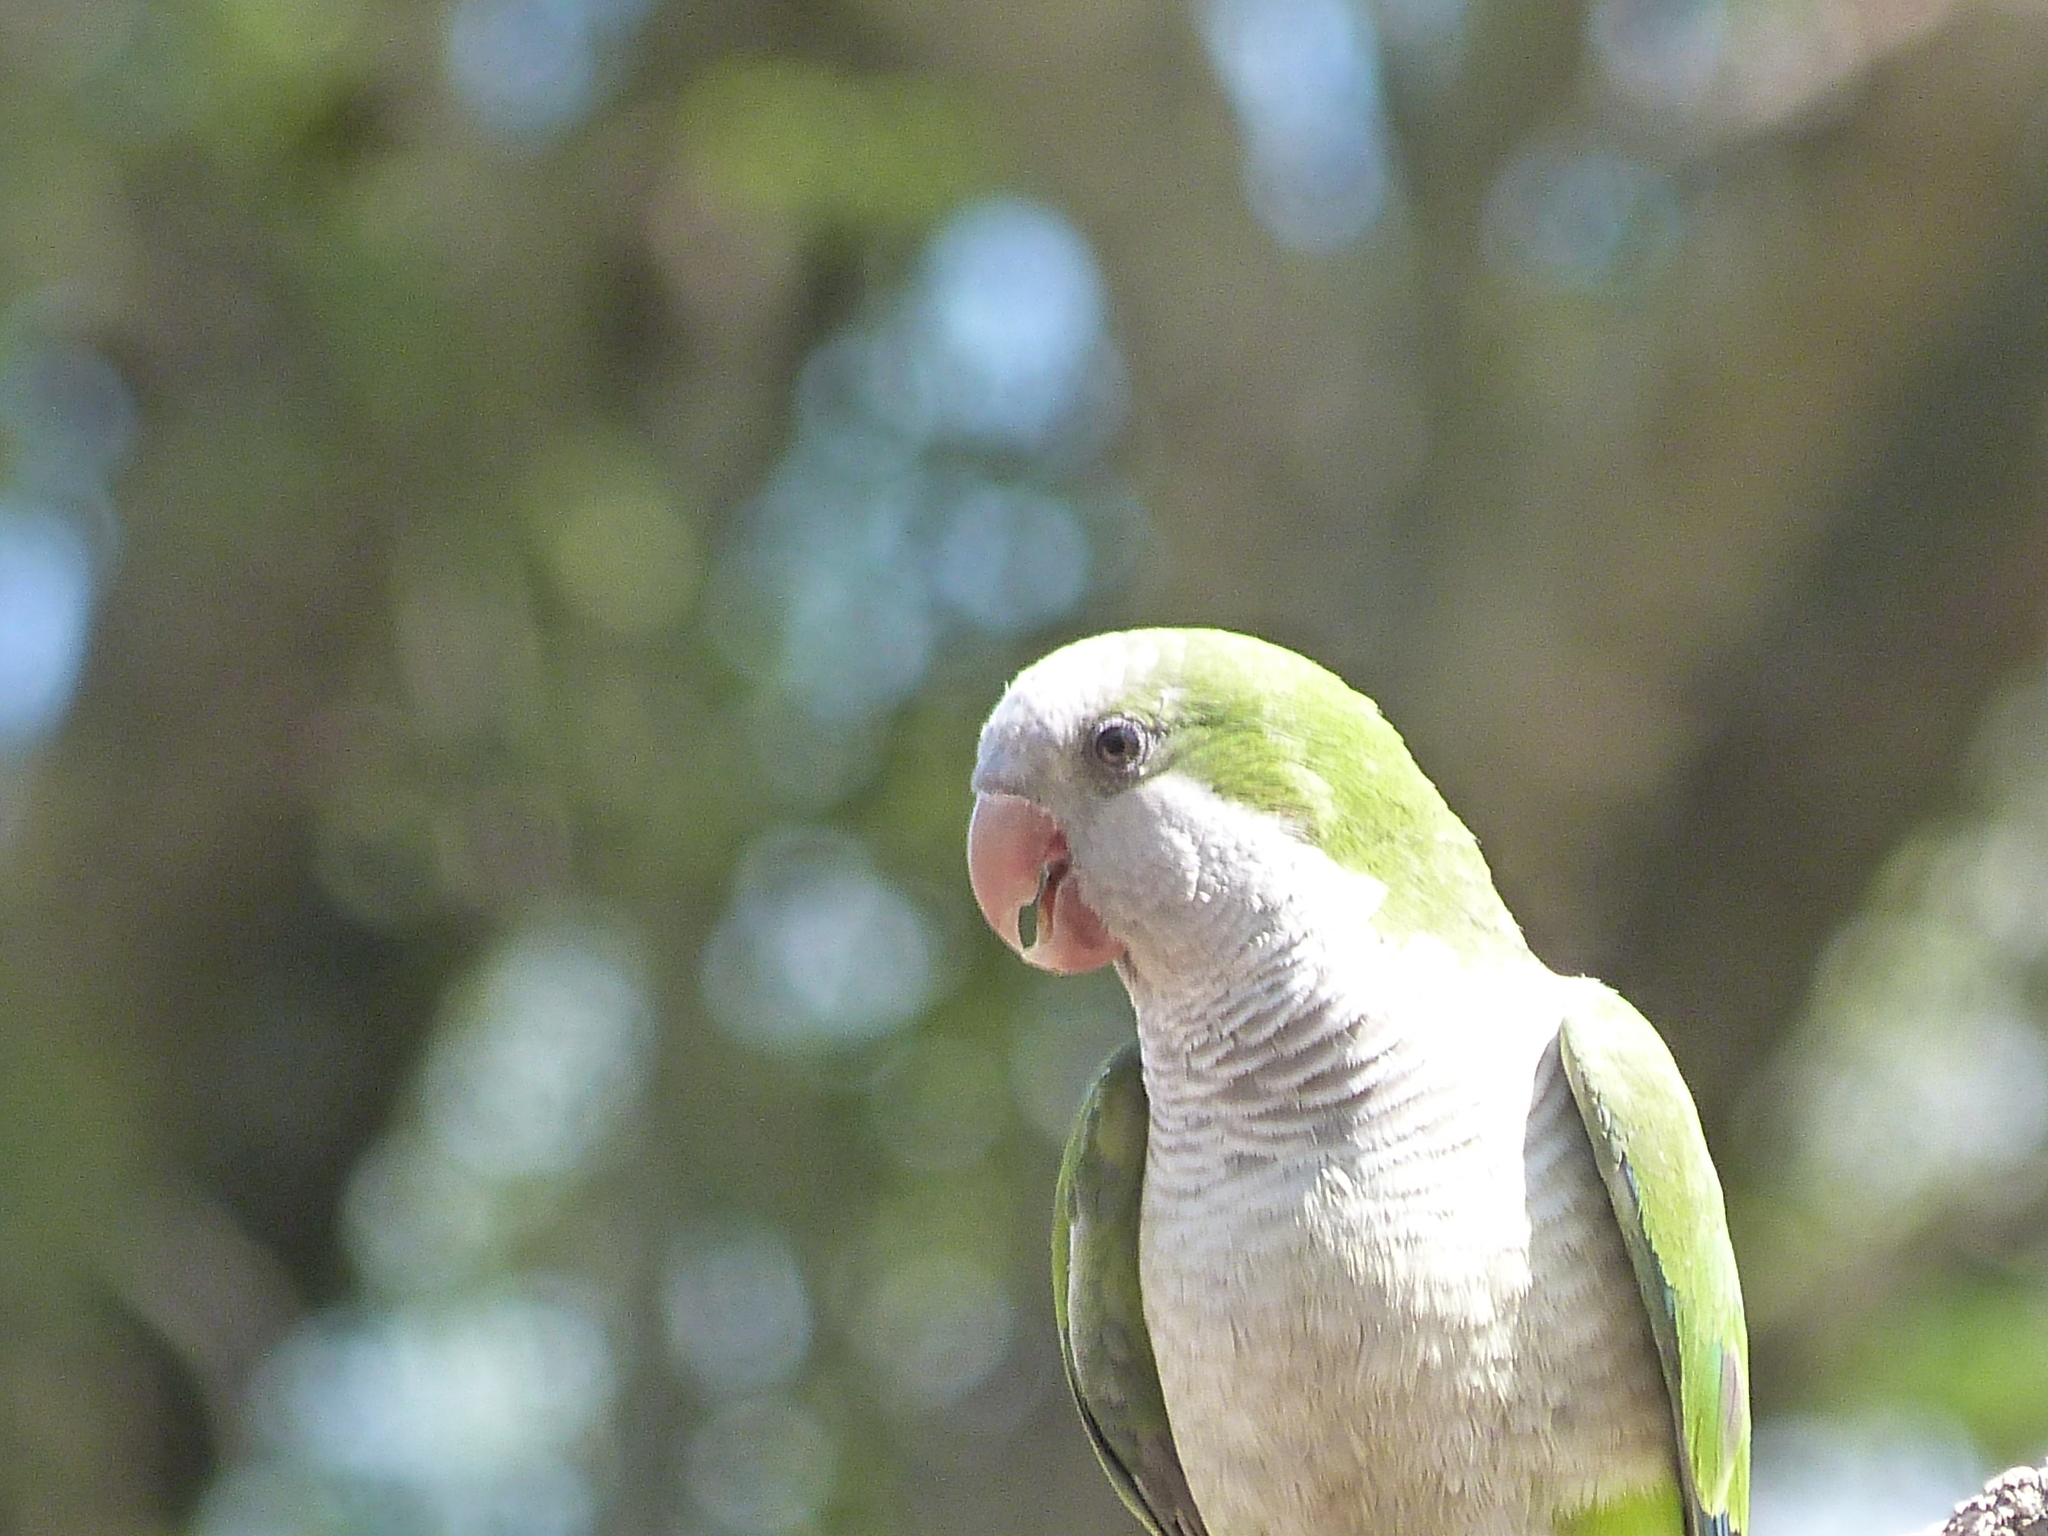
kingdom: Animalia
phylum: Chordata
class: Aves
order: Psittaciformes
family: Psittacidae
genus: Myiopsitta
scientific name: Myiopsitta monachus
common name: Monk parakeet
